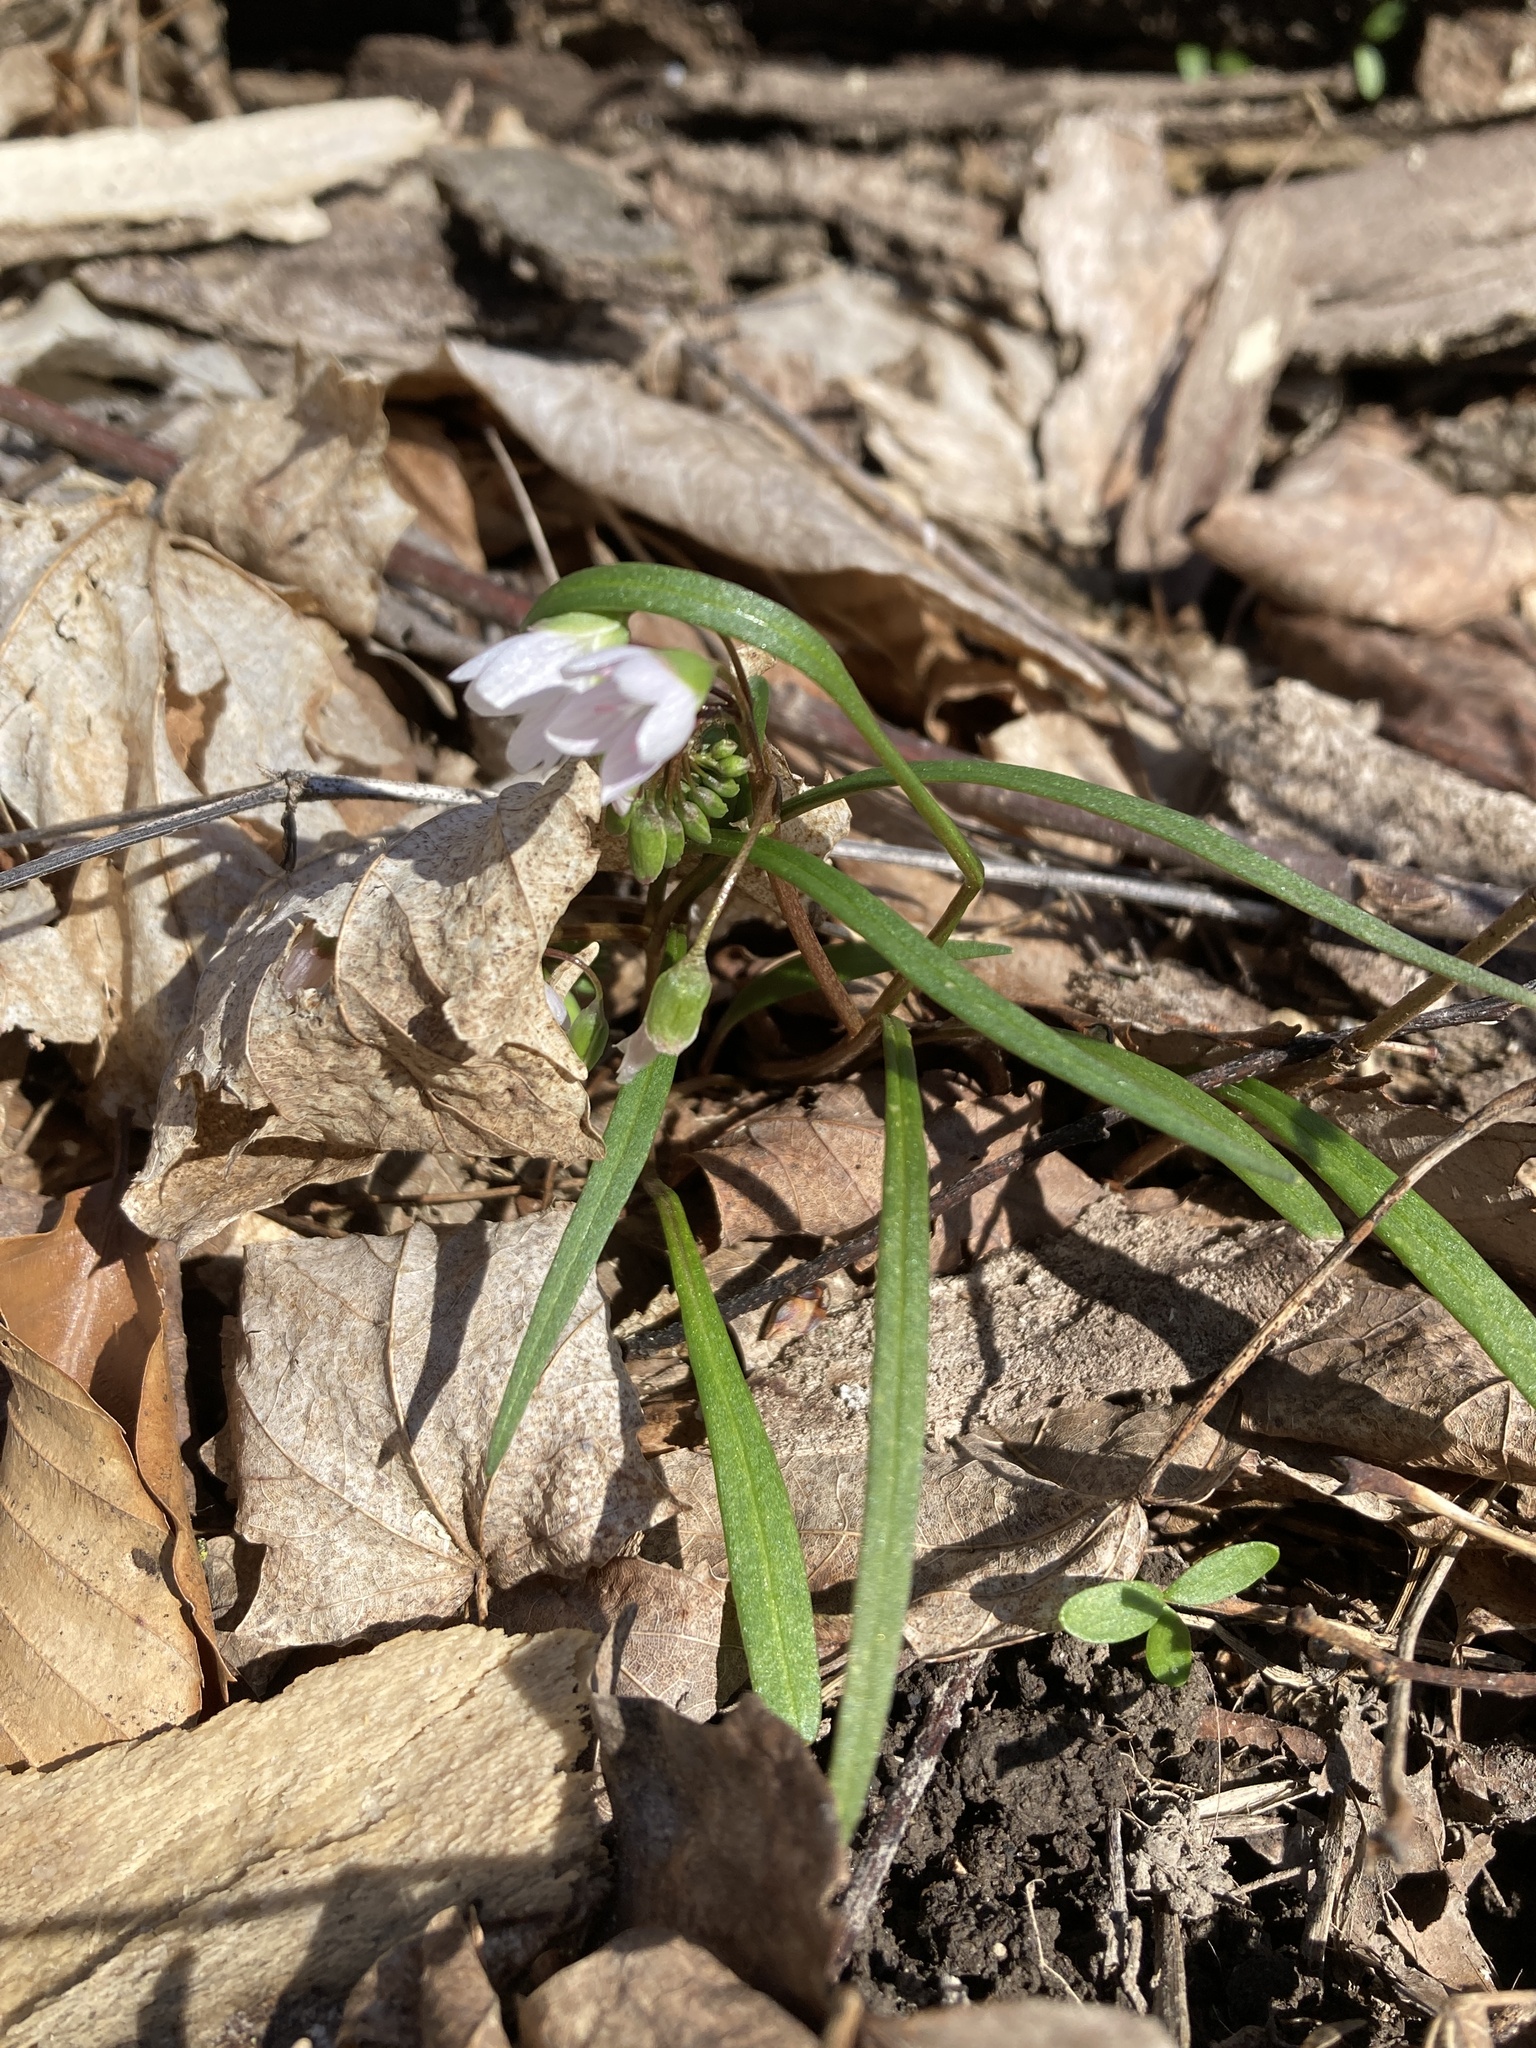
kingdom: Plantae
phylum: Tracheophyta
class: Magnoliopsida
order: Caryophyllales
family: Montiaceae
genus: Claytonia
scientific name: Claytonia virginica
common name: Virginia springbeauty
